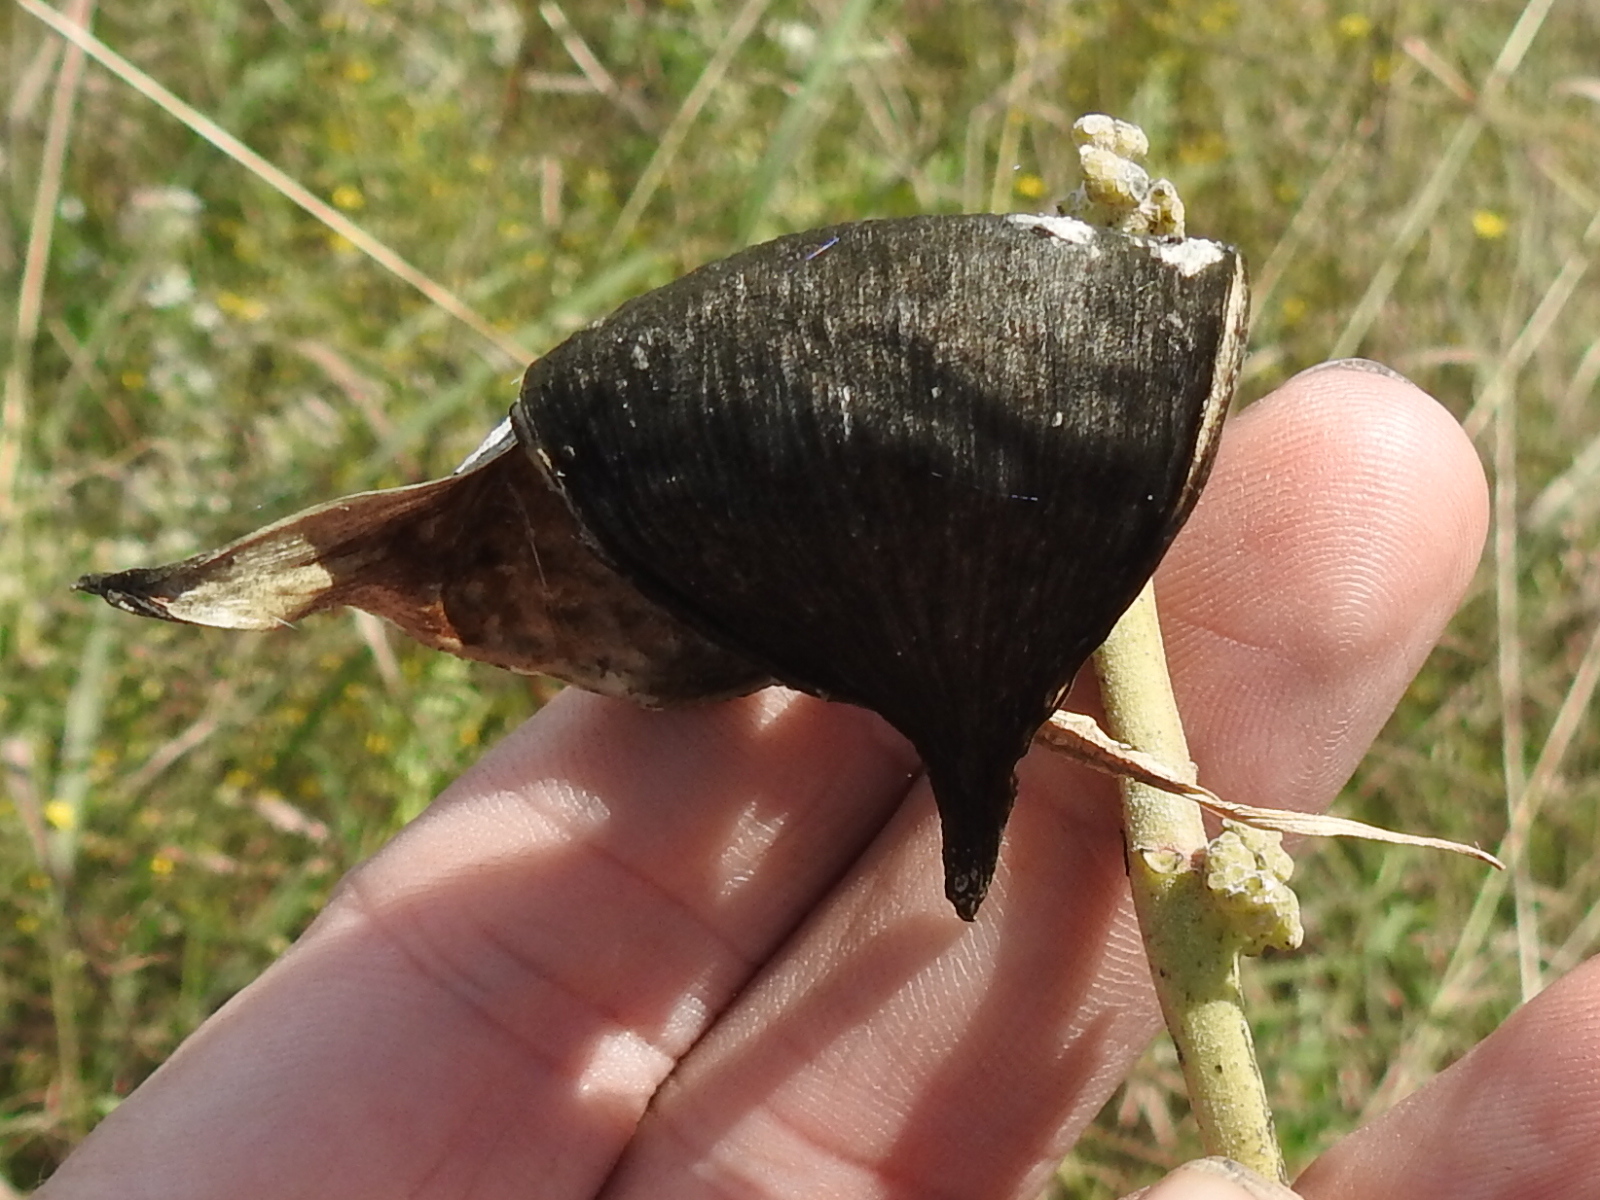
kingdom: Plantae
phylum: Tracheophyta
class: Magnoliopsida
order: Gentianales
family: Apocynaceae
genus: Asclepias
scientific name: Asclepias viridiflora
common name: Green comet milkweed
